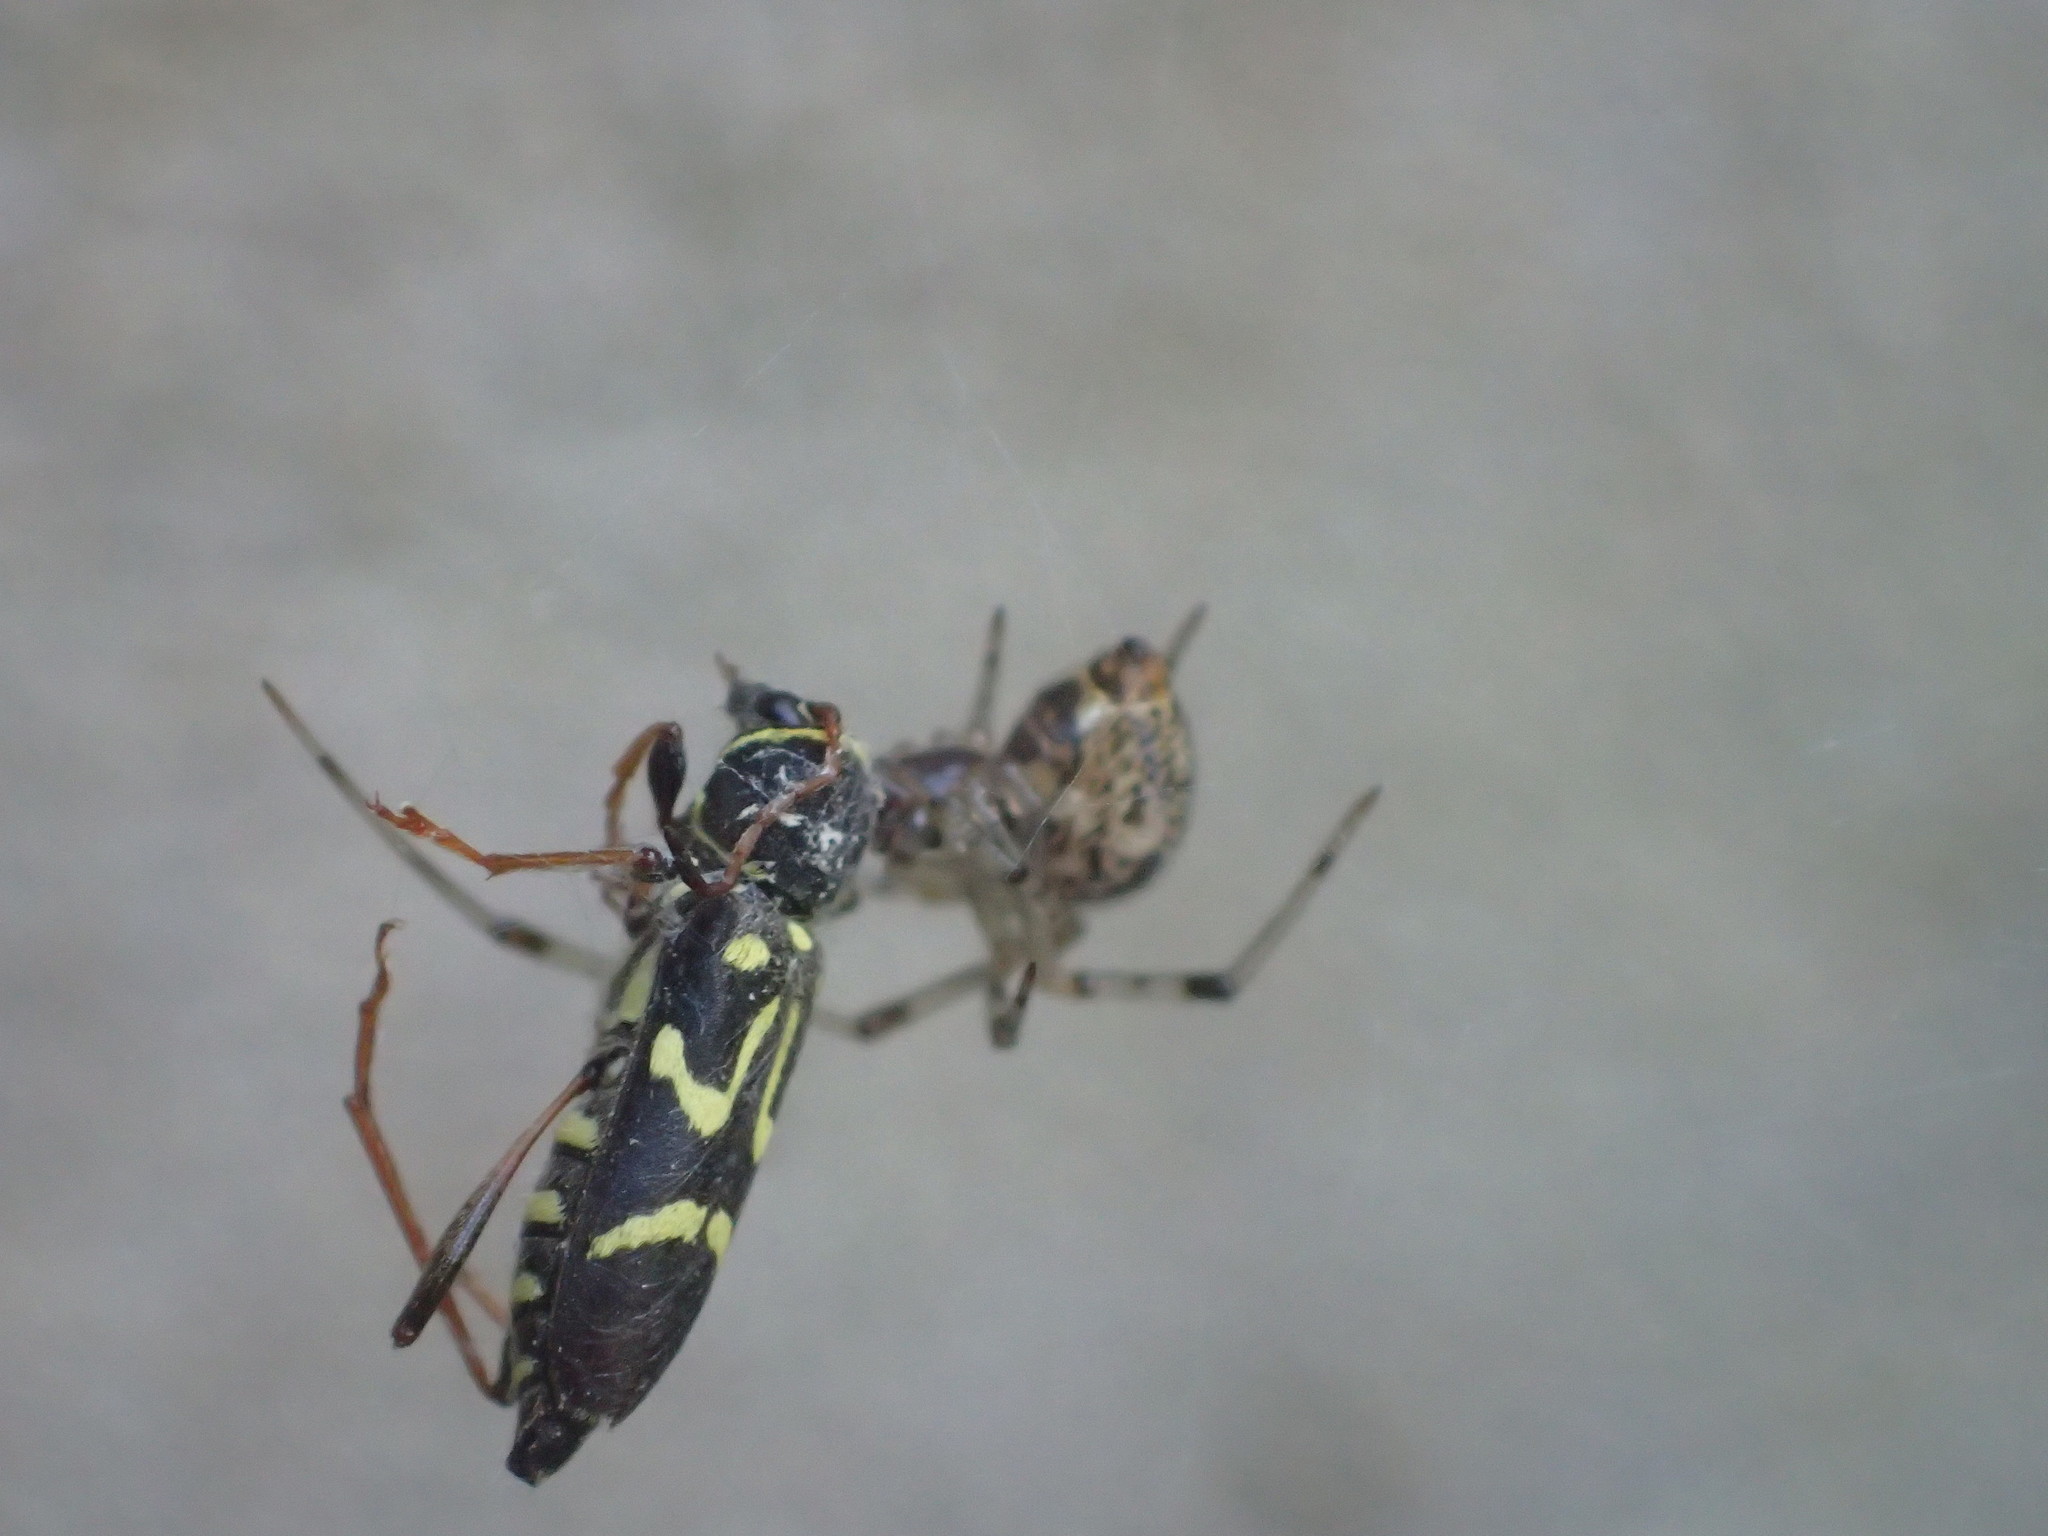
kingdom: Animalia
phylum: Arthropoda
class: Insecta
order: Coleoptera
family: Cerambycidae
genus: Clytus
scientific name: Clytus ruricola
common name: Round-necked longhorn beetle
